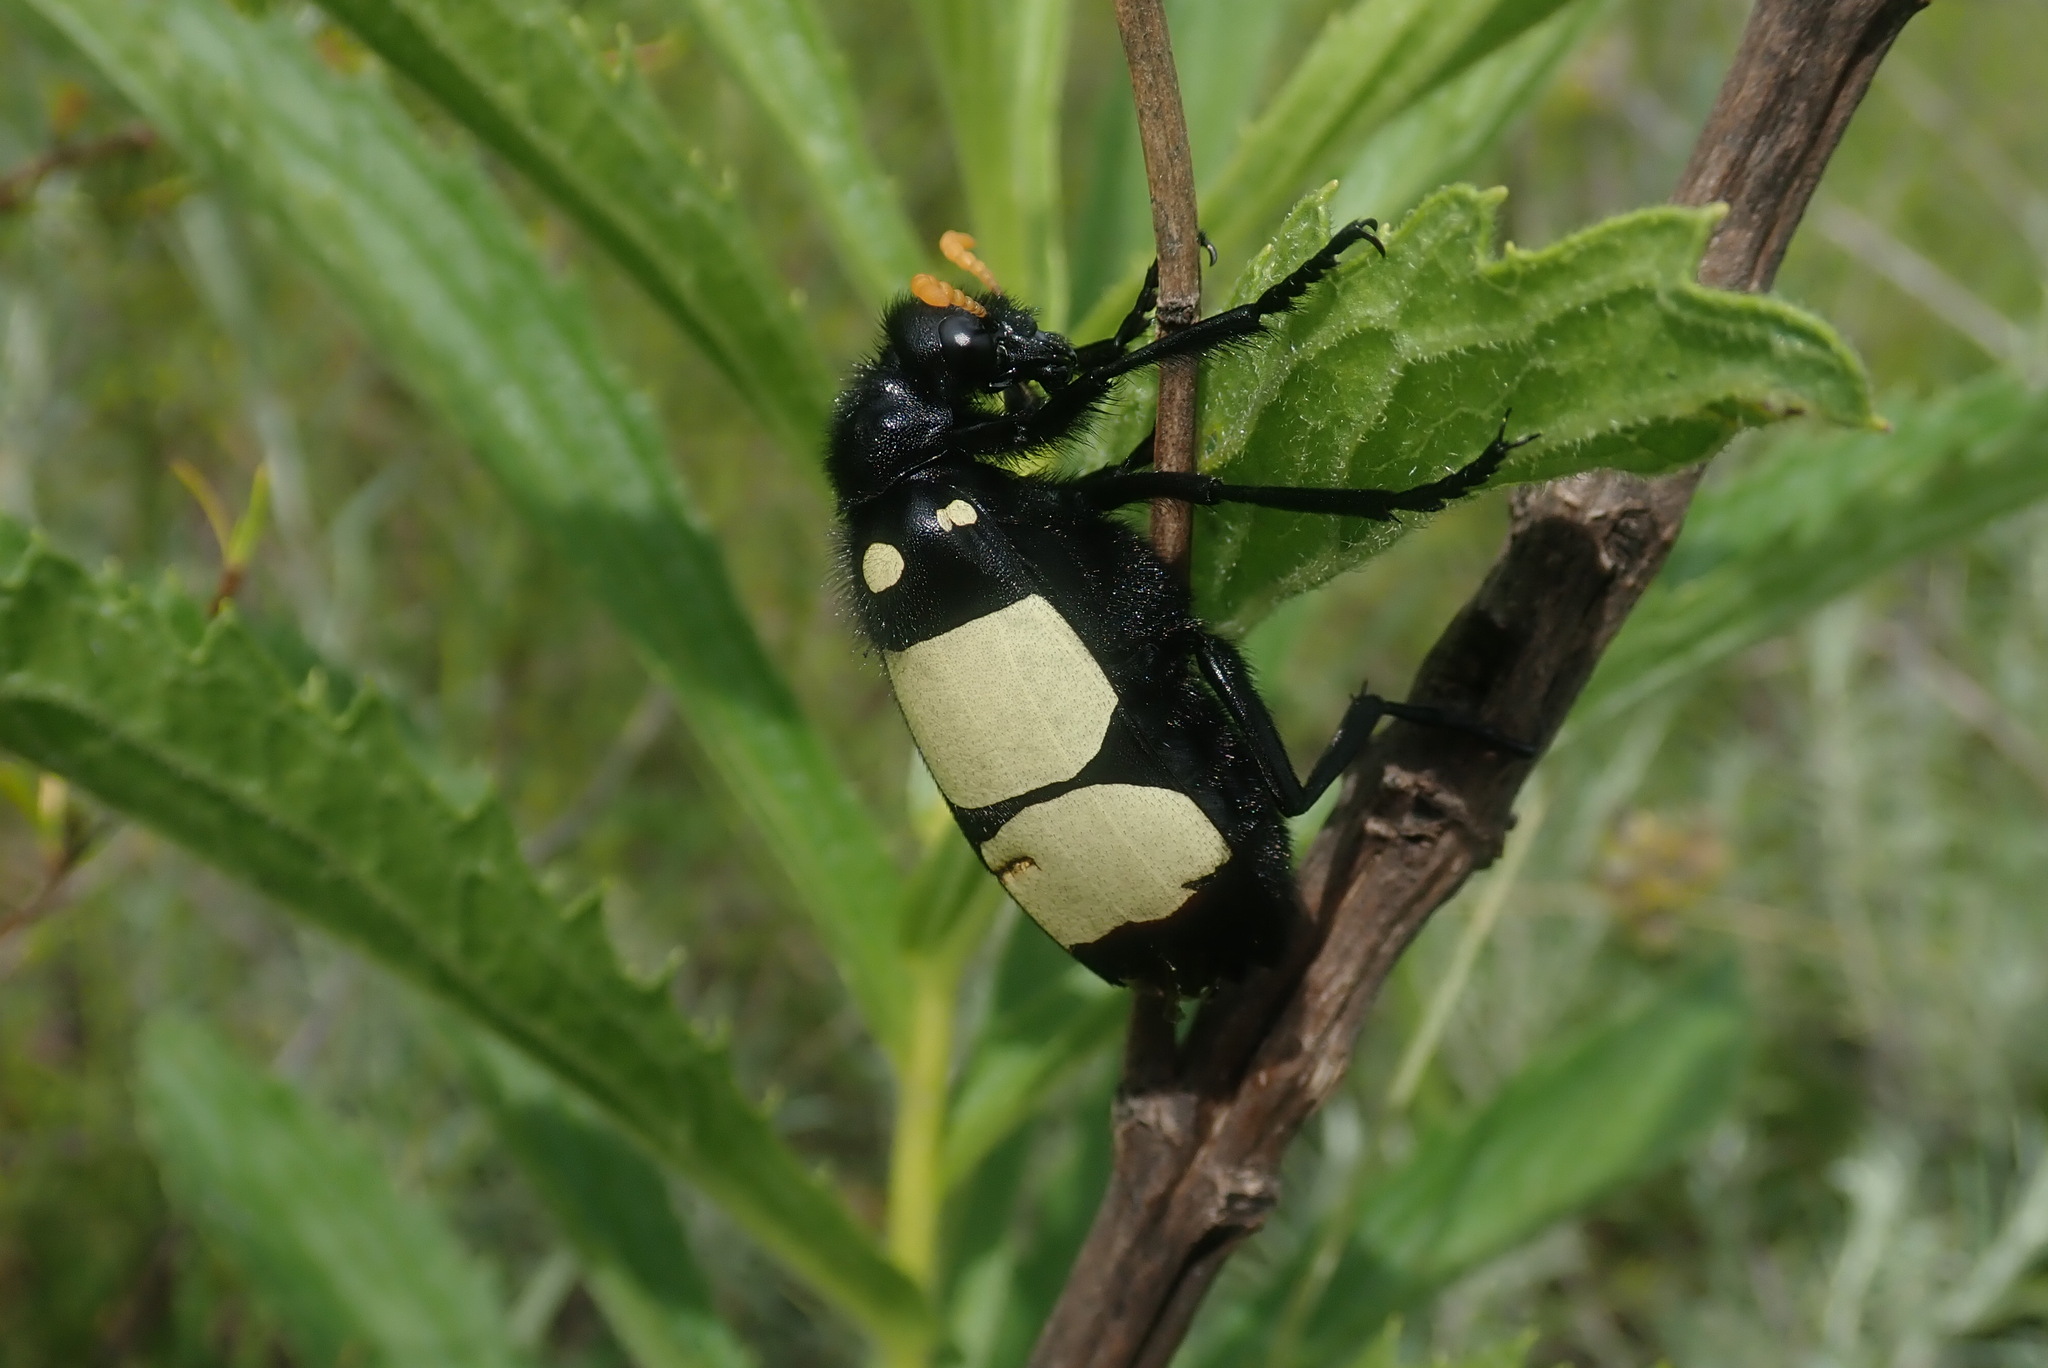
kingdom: Animalia
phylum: Arthropoda
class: Insecta
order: Coleoptera
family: Meloidae
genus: Hycleus
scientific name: Hycleus
